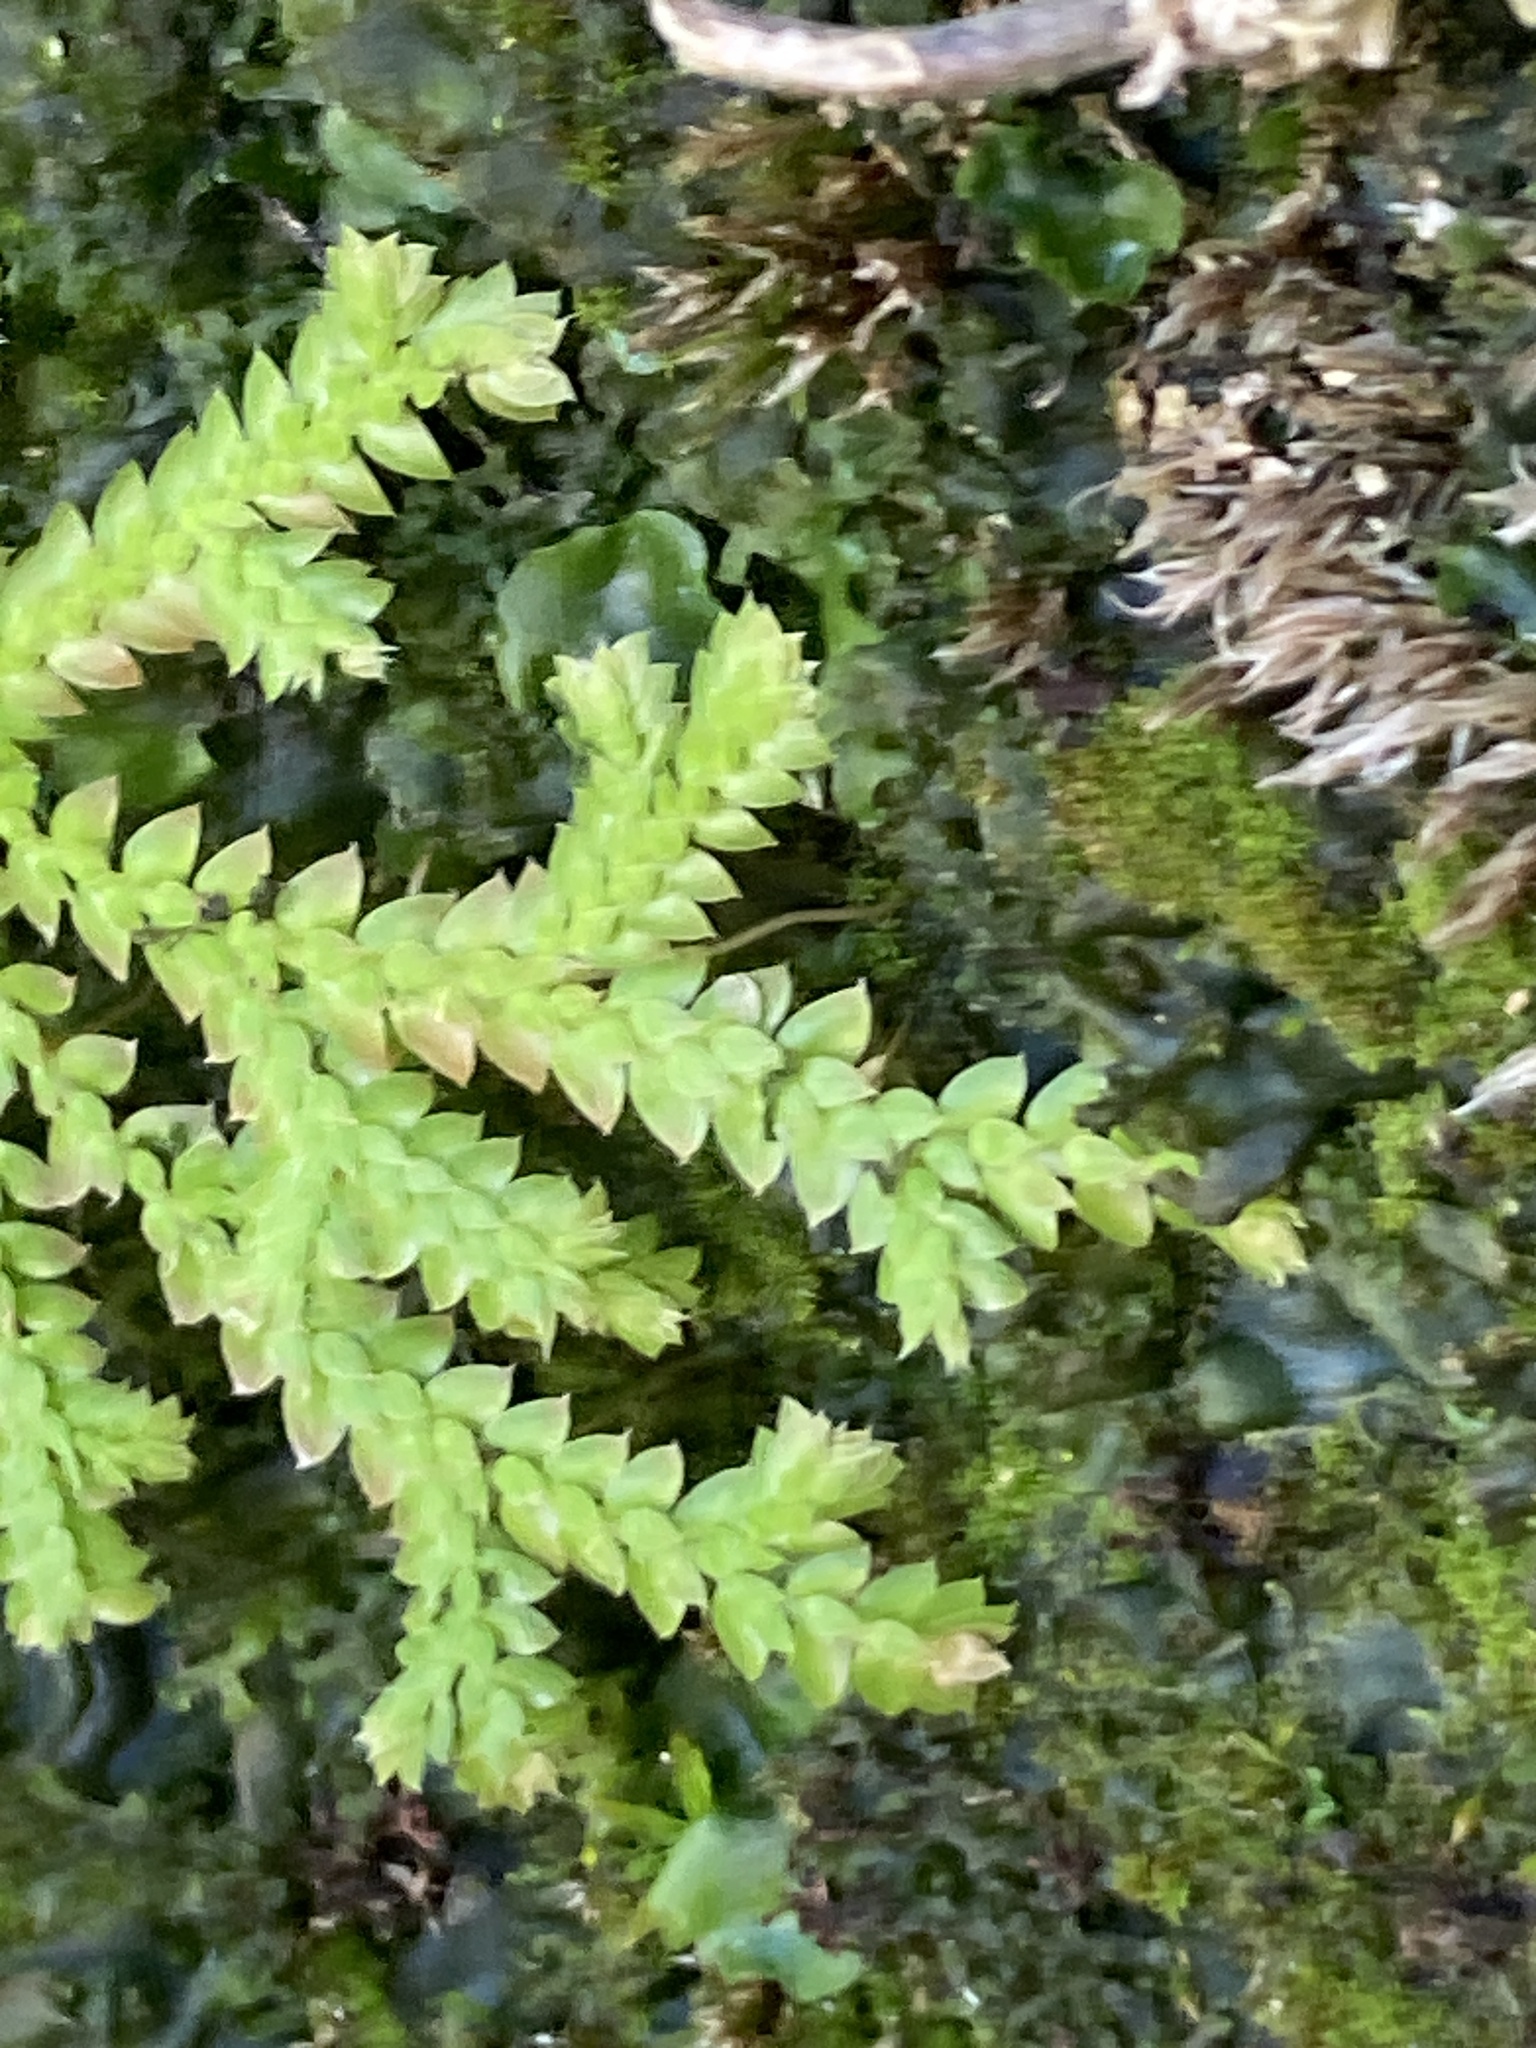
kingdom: Plantae
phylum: Tracheophyta
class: Lycopodiopsida
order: Selaginellales
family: Selaginellaceae
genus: Selaginella
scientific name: Selaginella denticulata
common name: Toothed-leaved clubmoss
